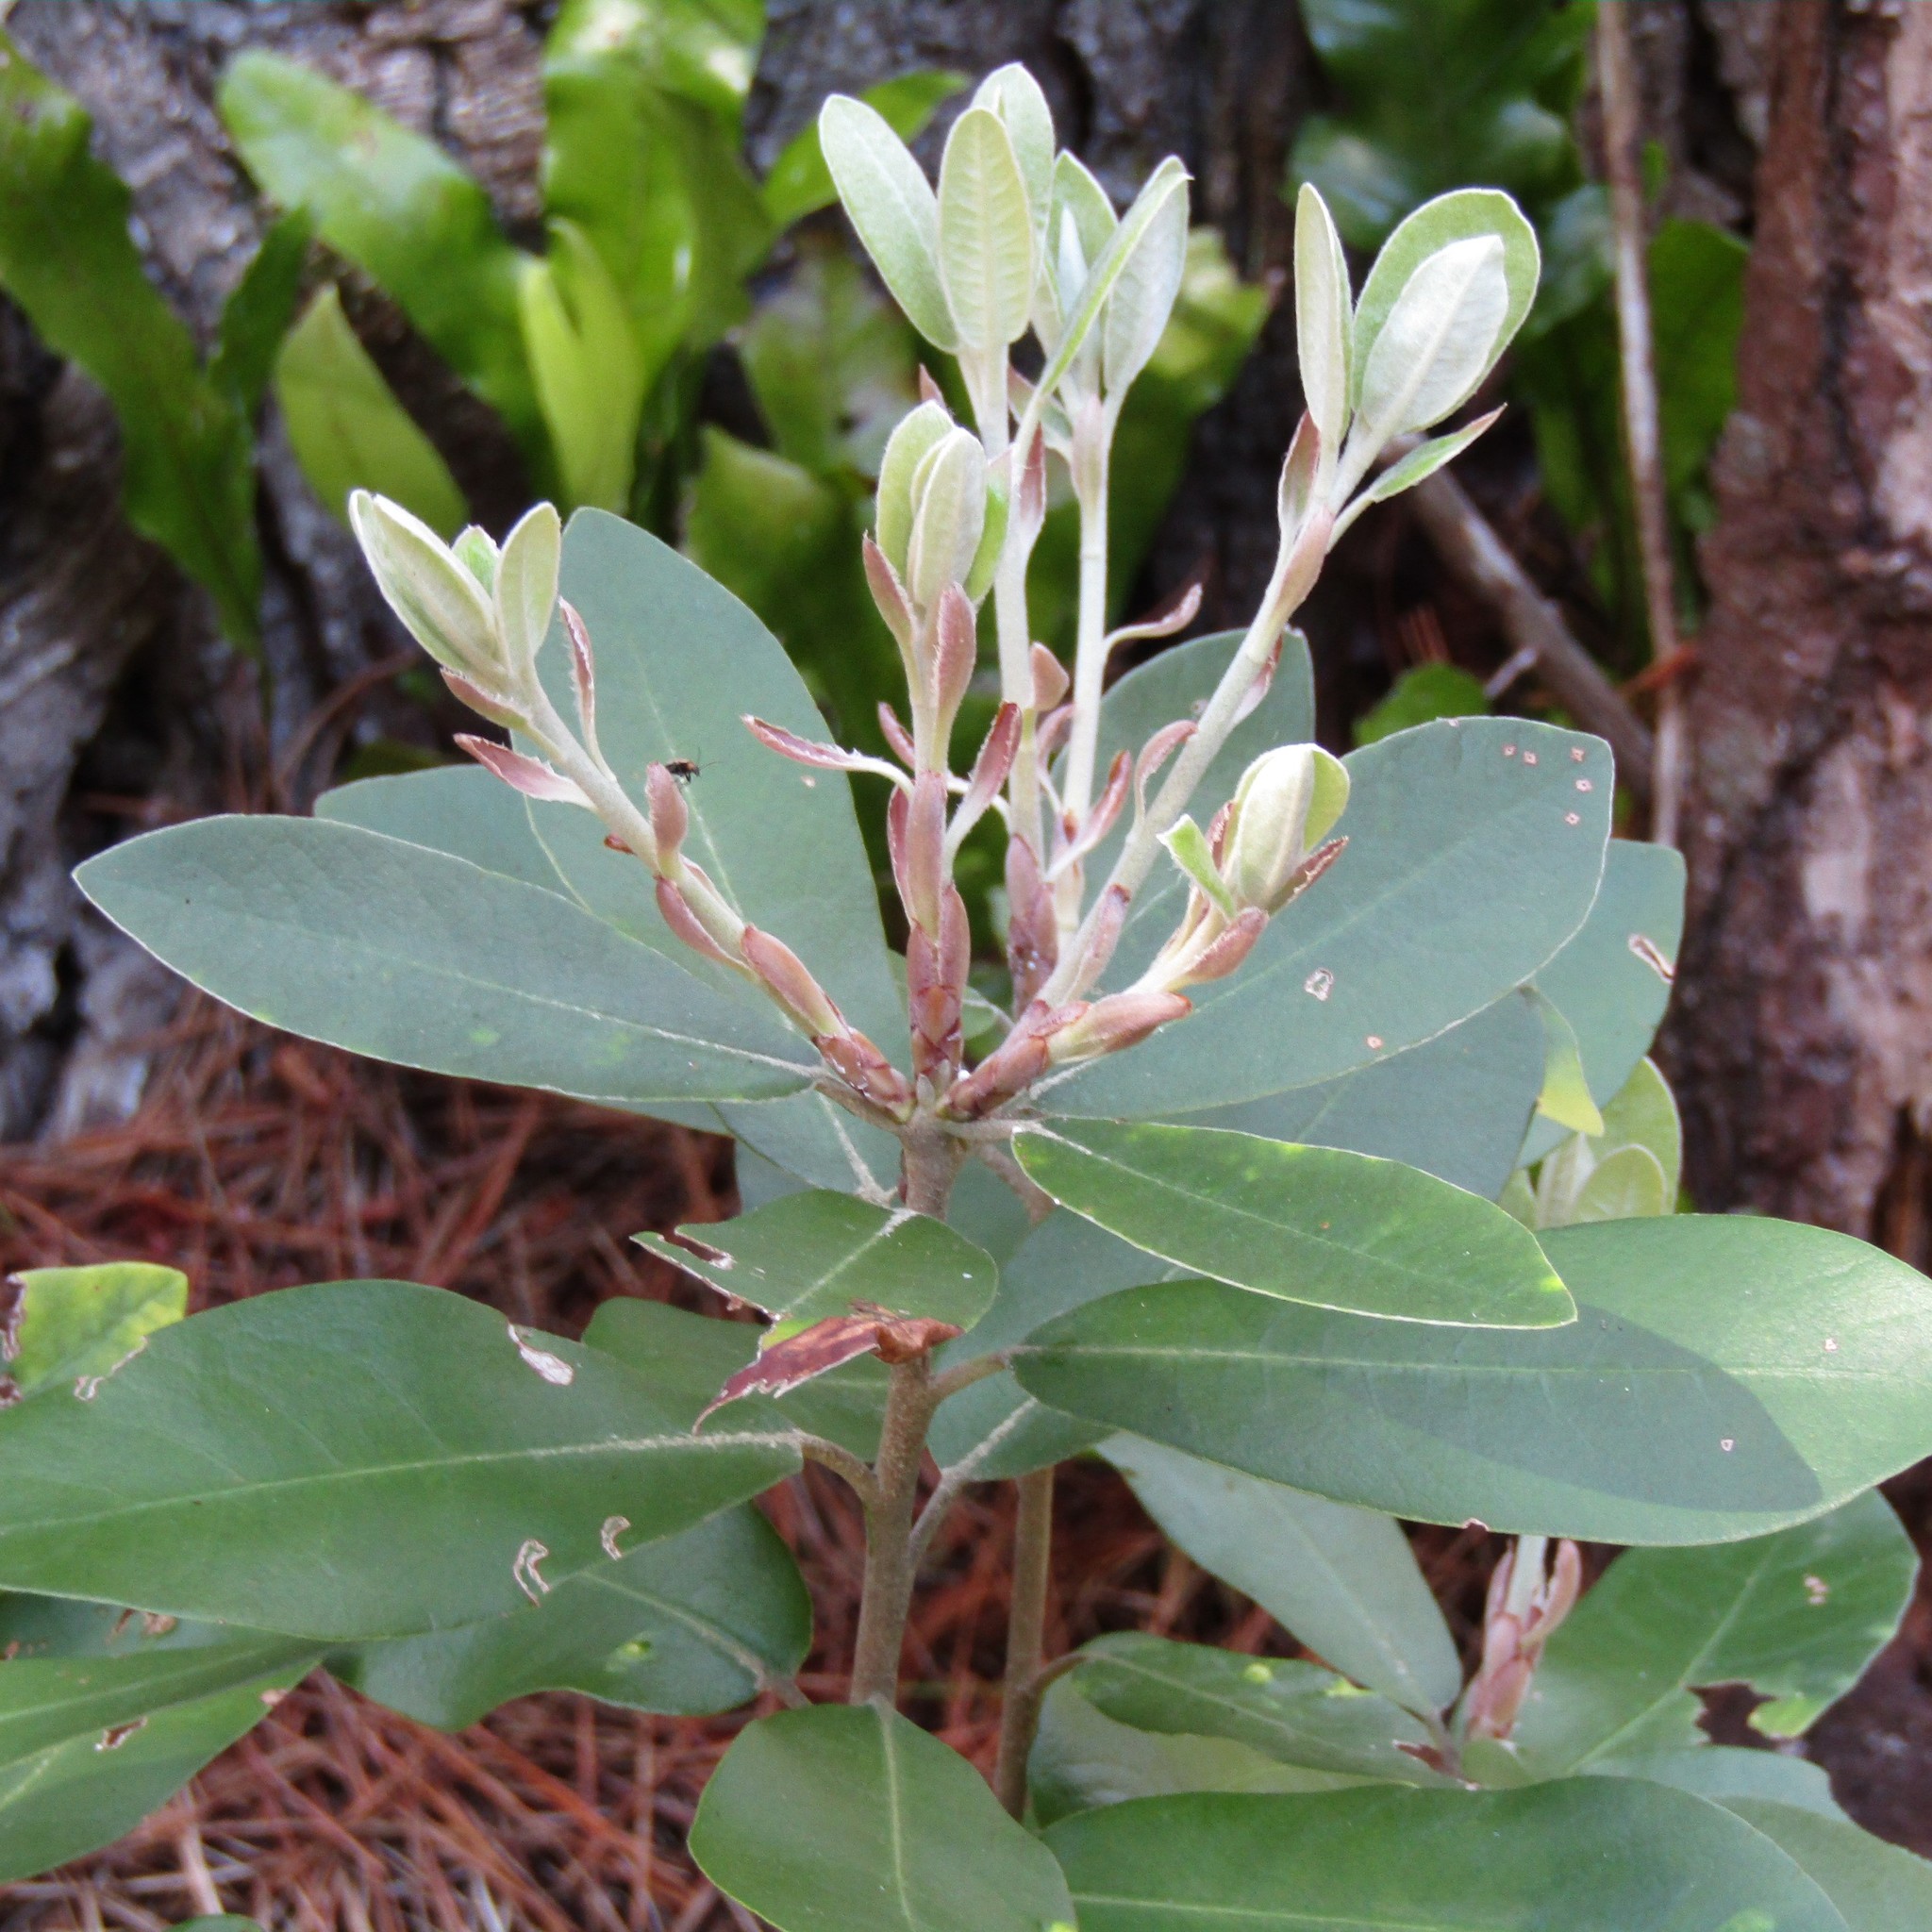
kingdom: Plantae
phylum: Tracheophyta
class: Magnoliopsida
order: Apiales
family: Pittosporaceae
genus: Pittosporum
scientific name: Pittosporum ralphii
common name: Ralph's desertwillow
